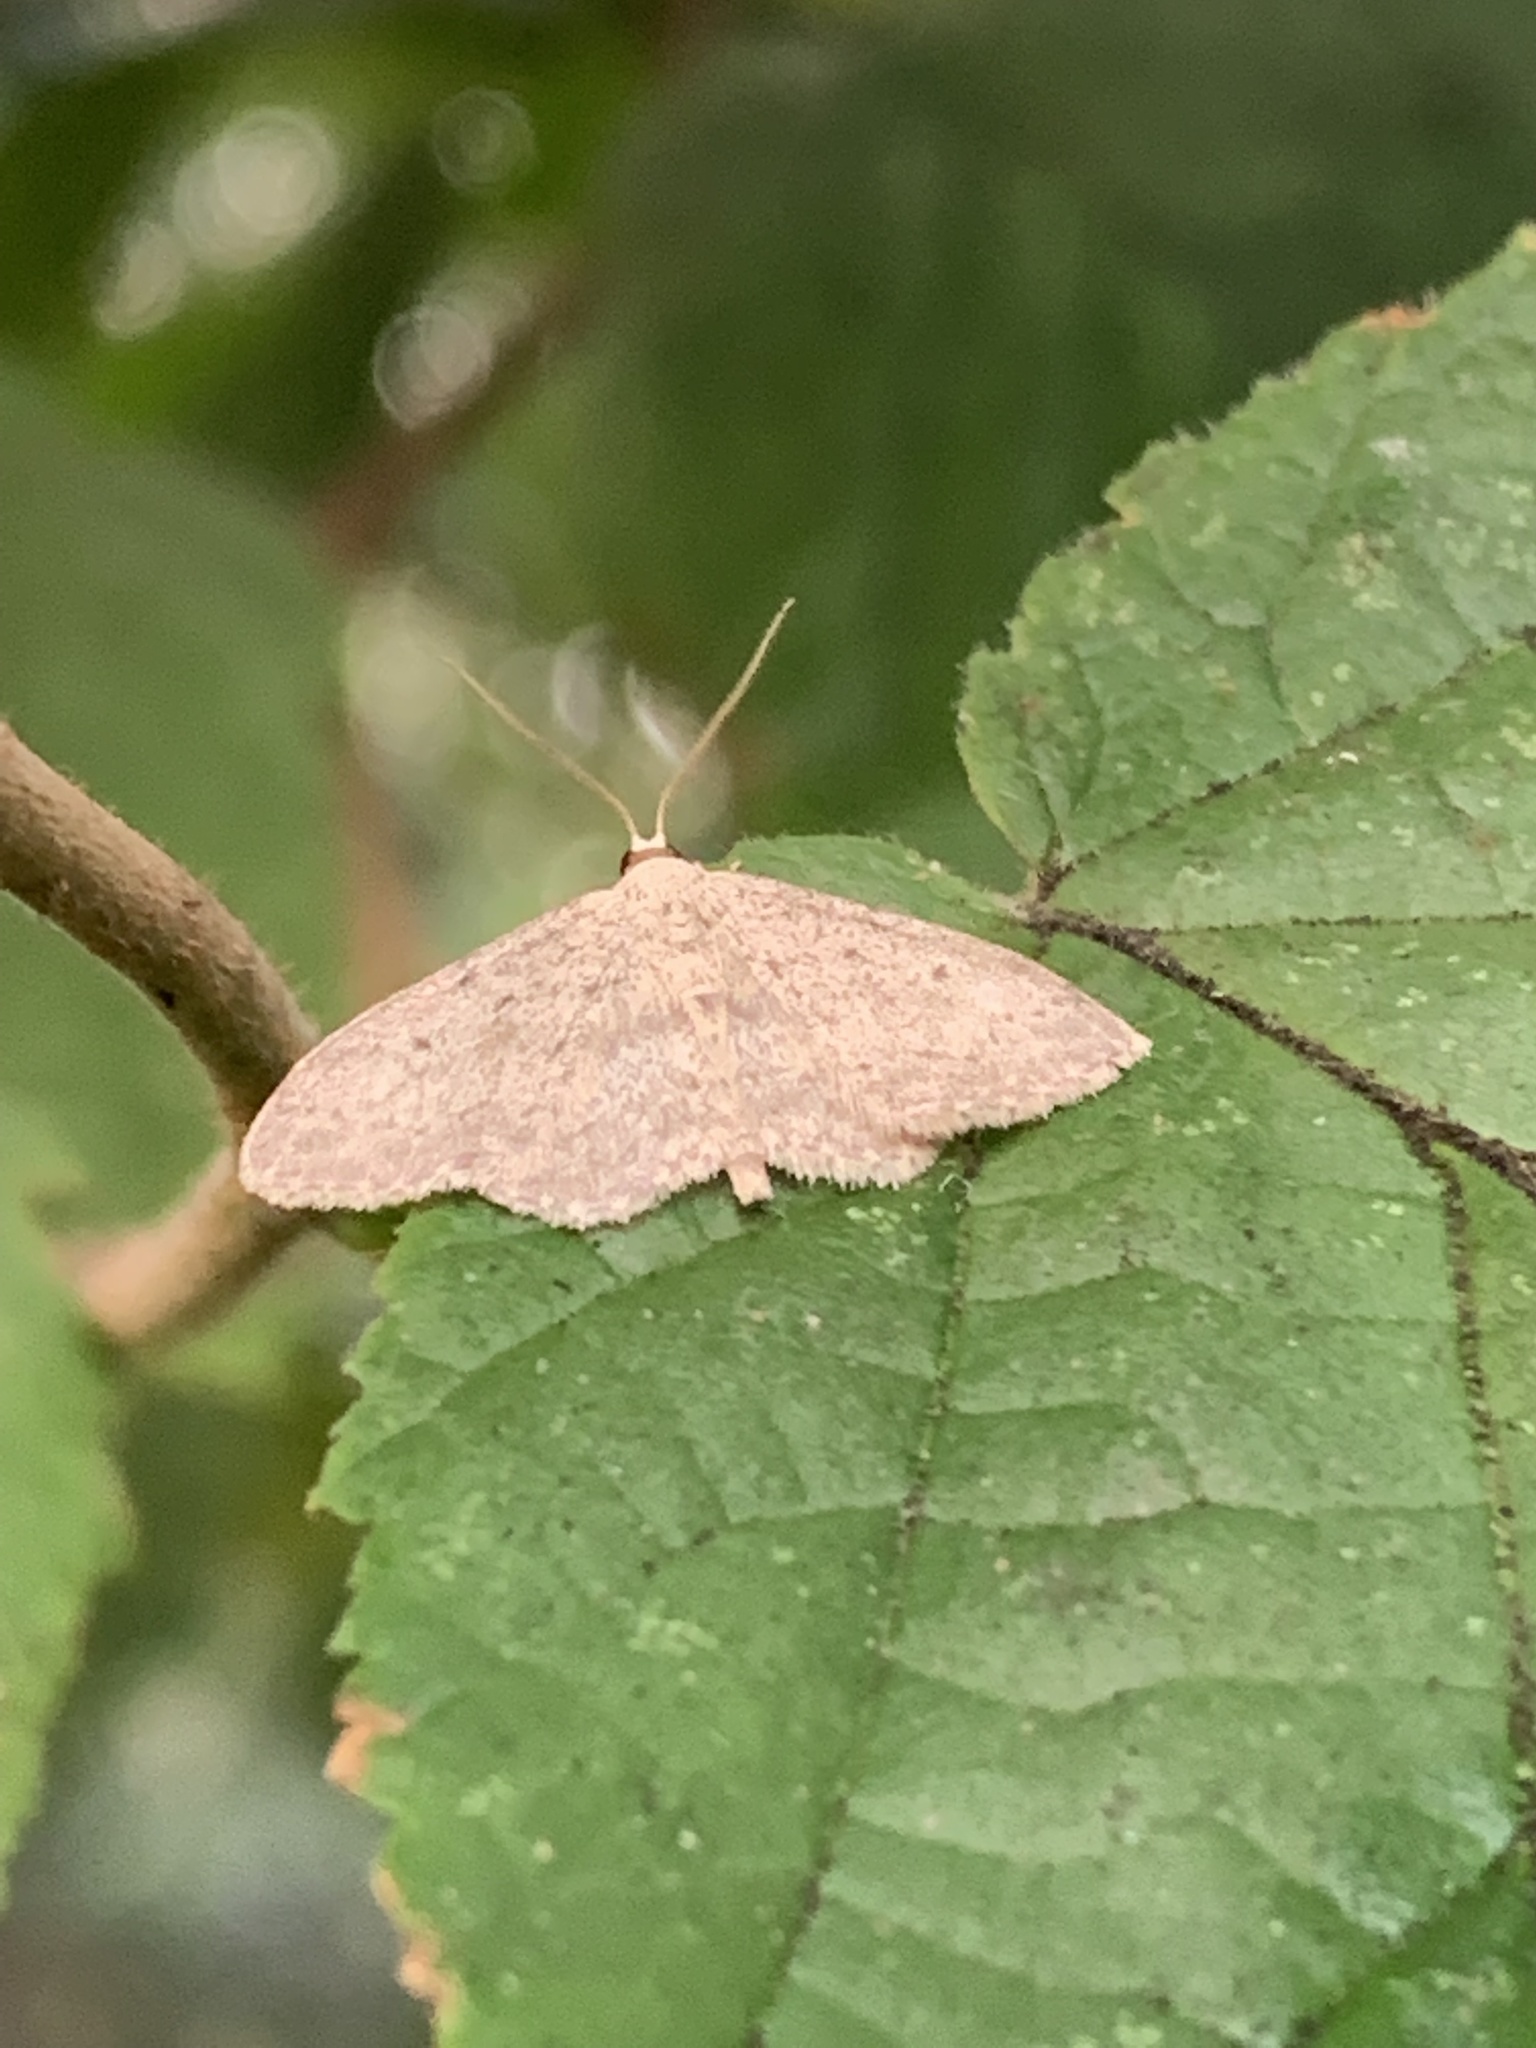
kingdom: Animalia
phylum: Arthropoda
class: Insecta
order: Lepidoptera
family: Geometridae
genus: Idaea
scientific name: Idaea seriata
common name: Small dusty wave
